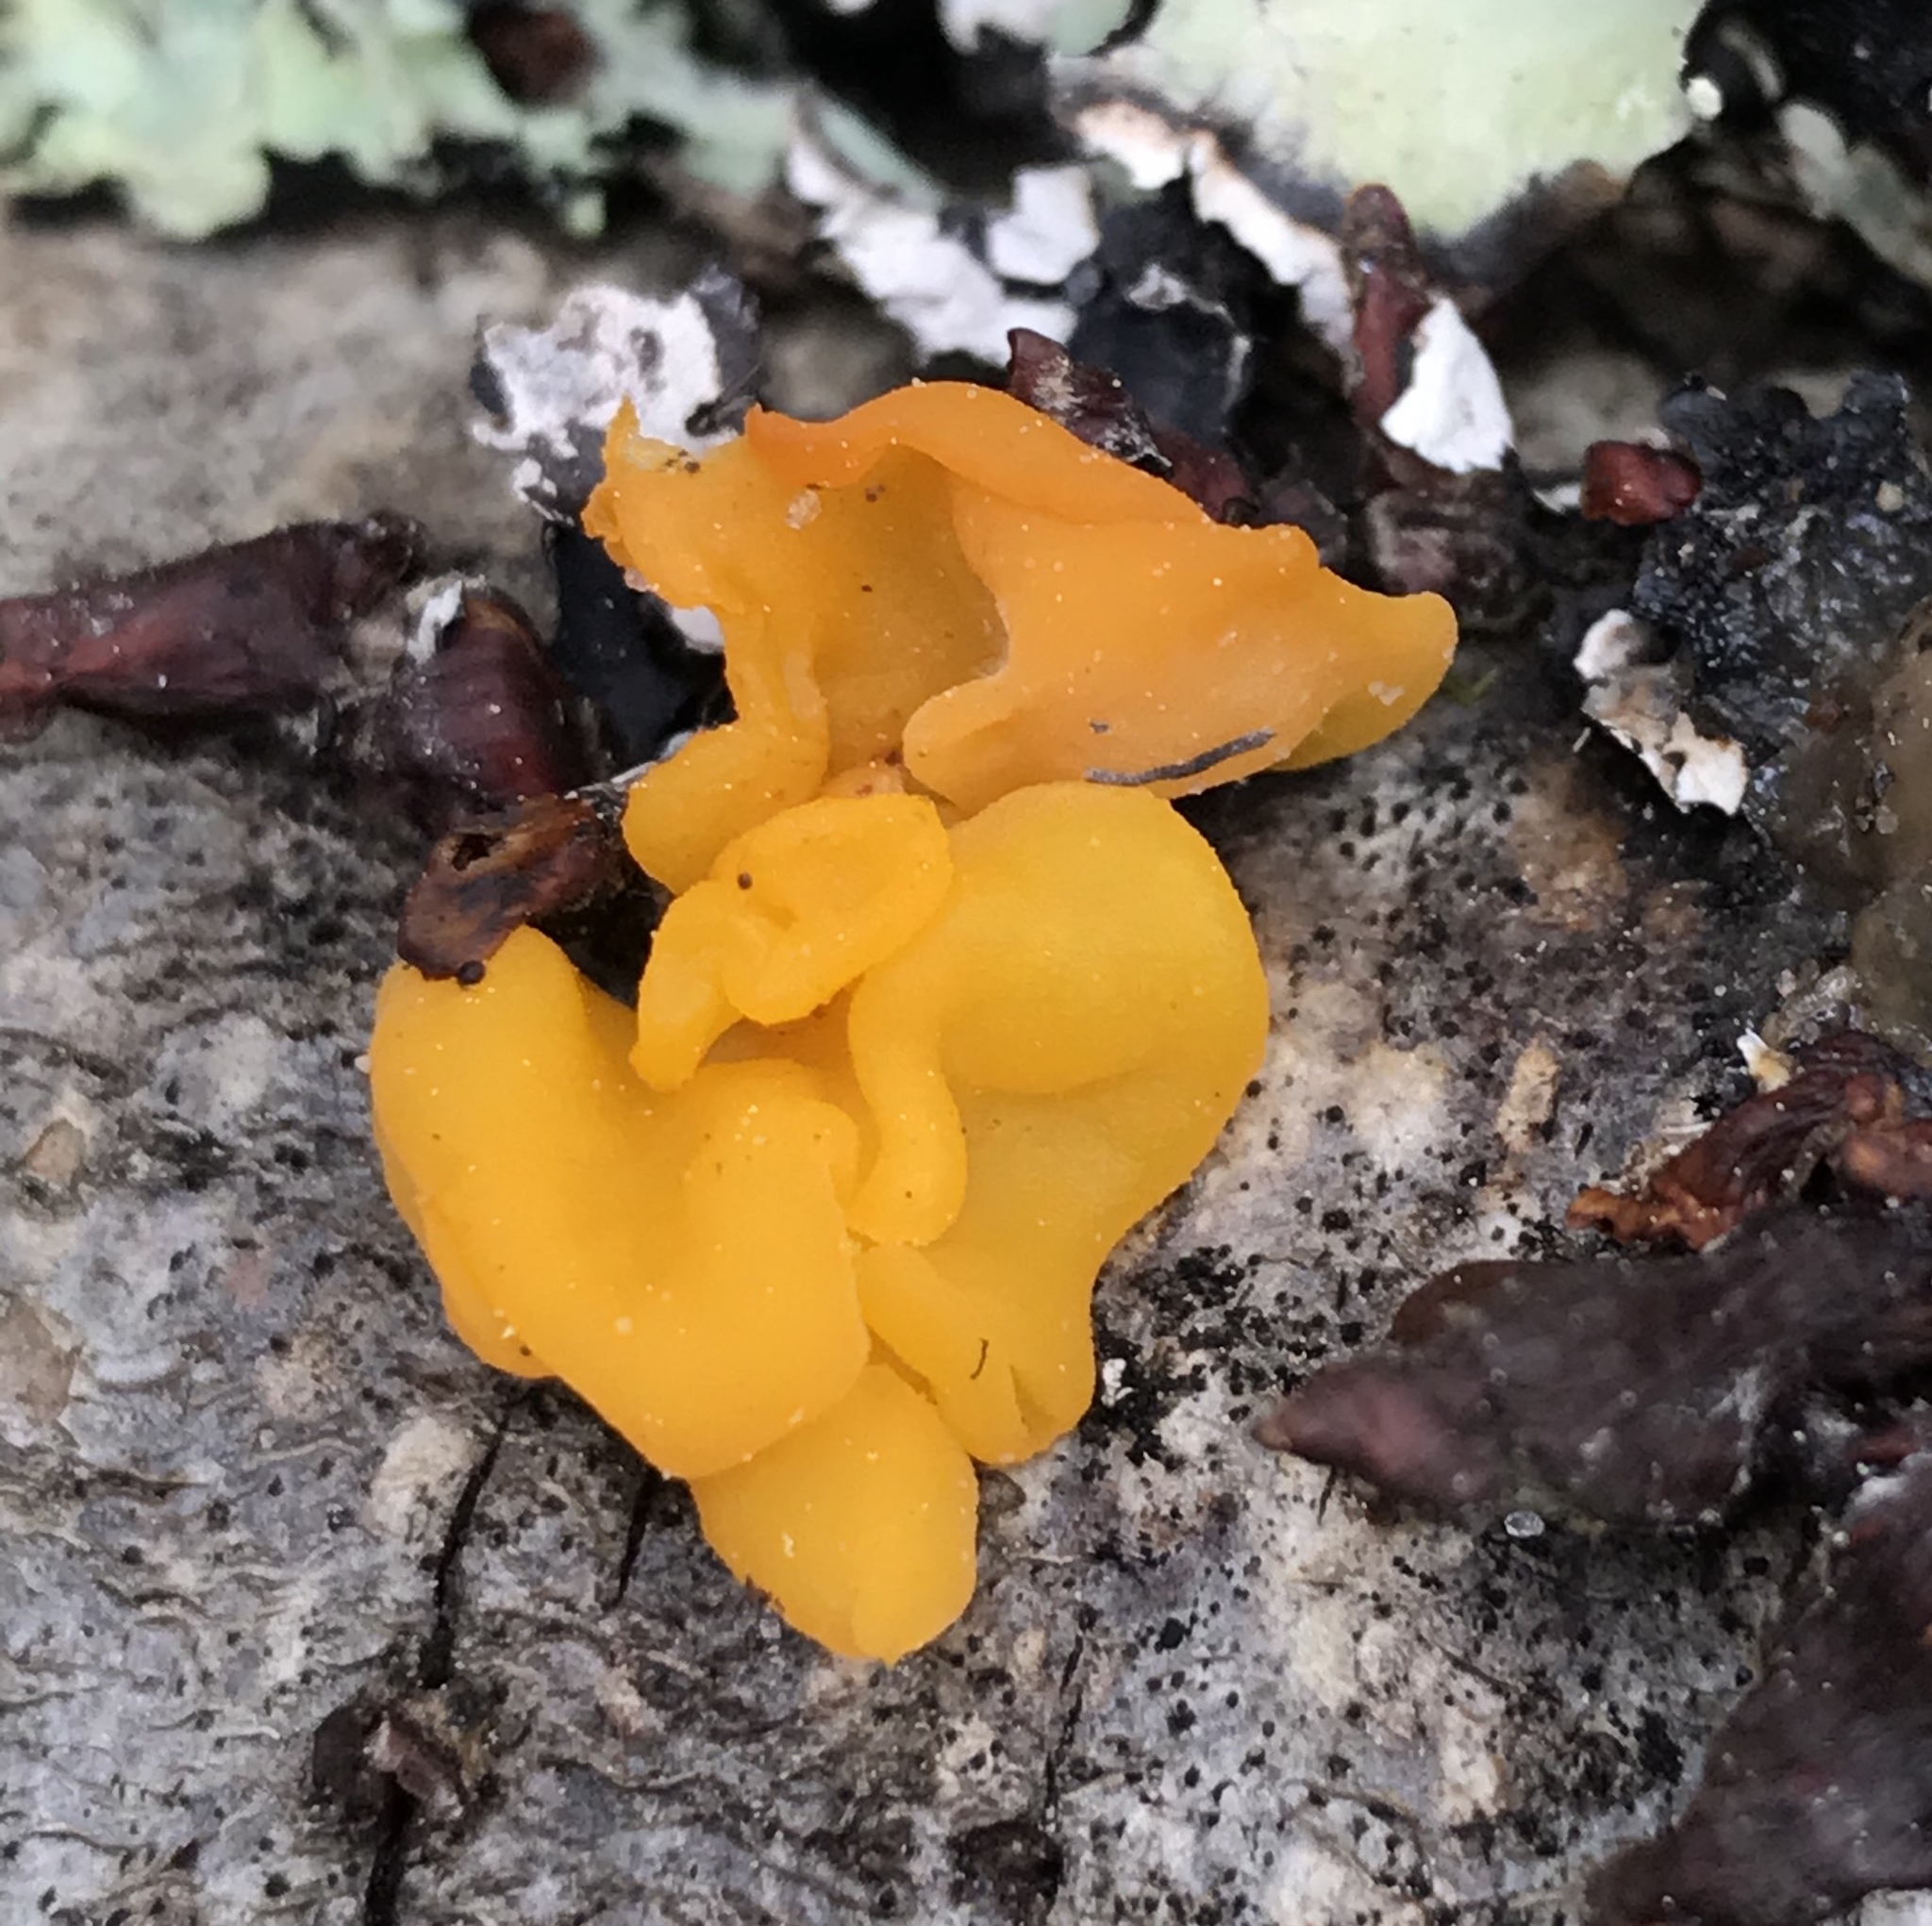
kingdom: Fungi
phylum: Basidiomycota
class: Tremellomycetes
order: Tremellales
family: Naemateliaceae
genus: Naematelia
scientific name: Naematelia aurantia
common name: Golden ear
